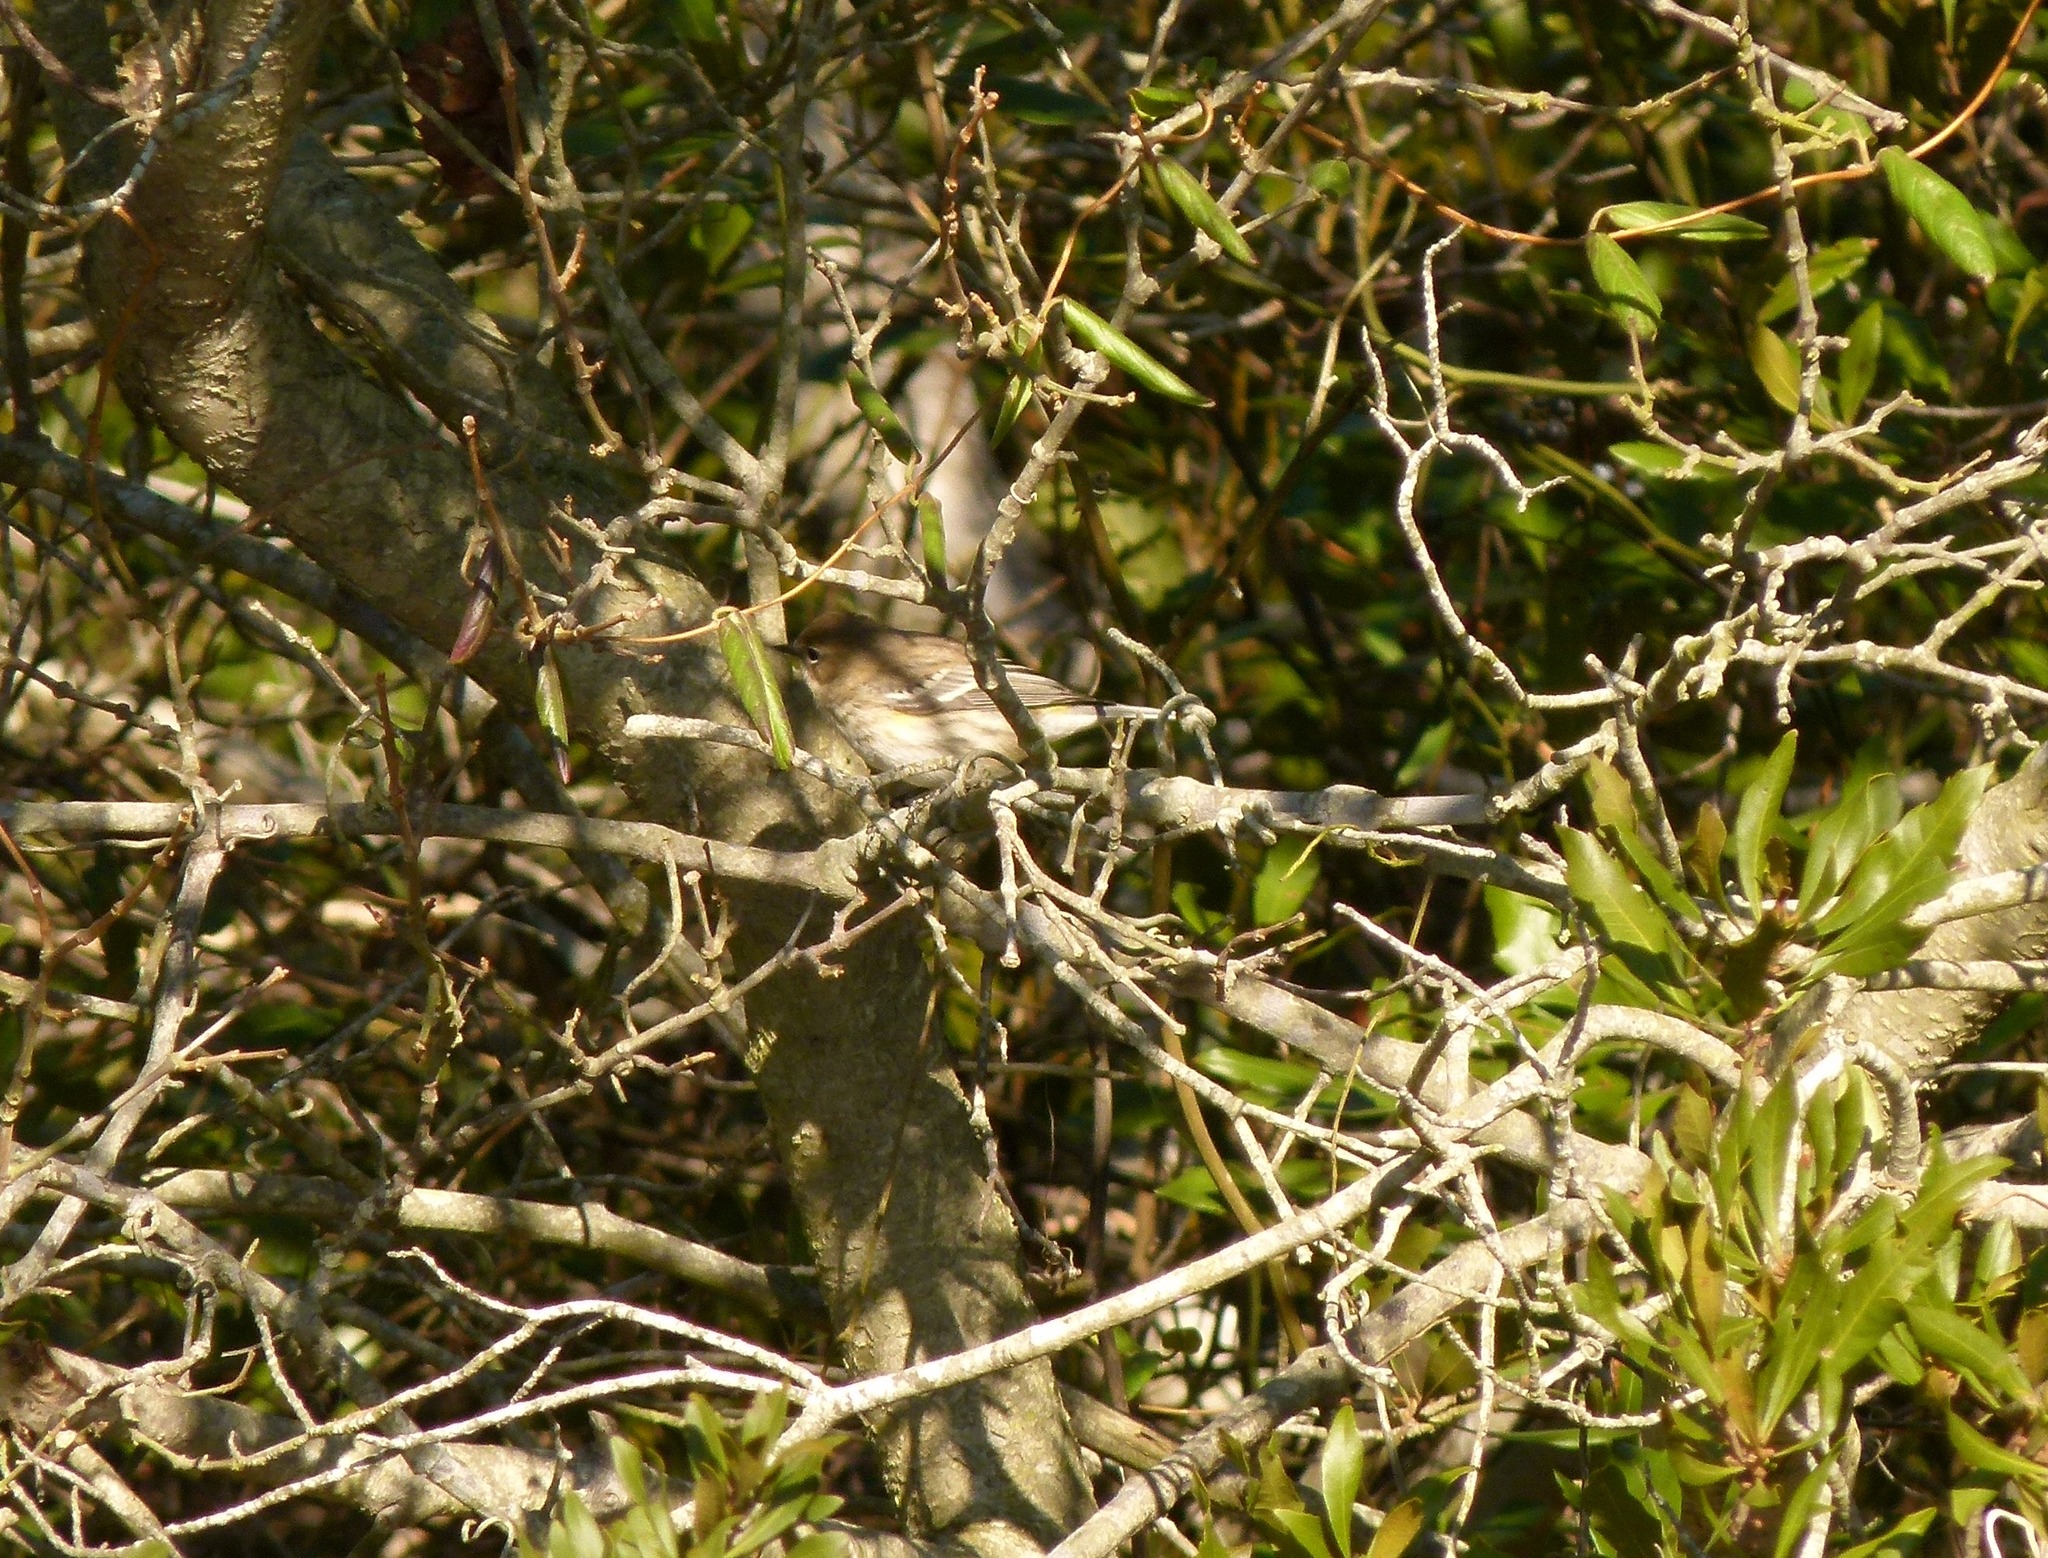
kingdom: Animalia
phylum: Chordata
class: Aves
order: Passeriformes
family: Parulidae
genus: Setophaga
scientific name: Setophaga coronata
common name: Myrtle warbler
